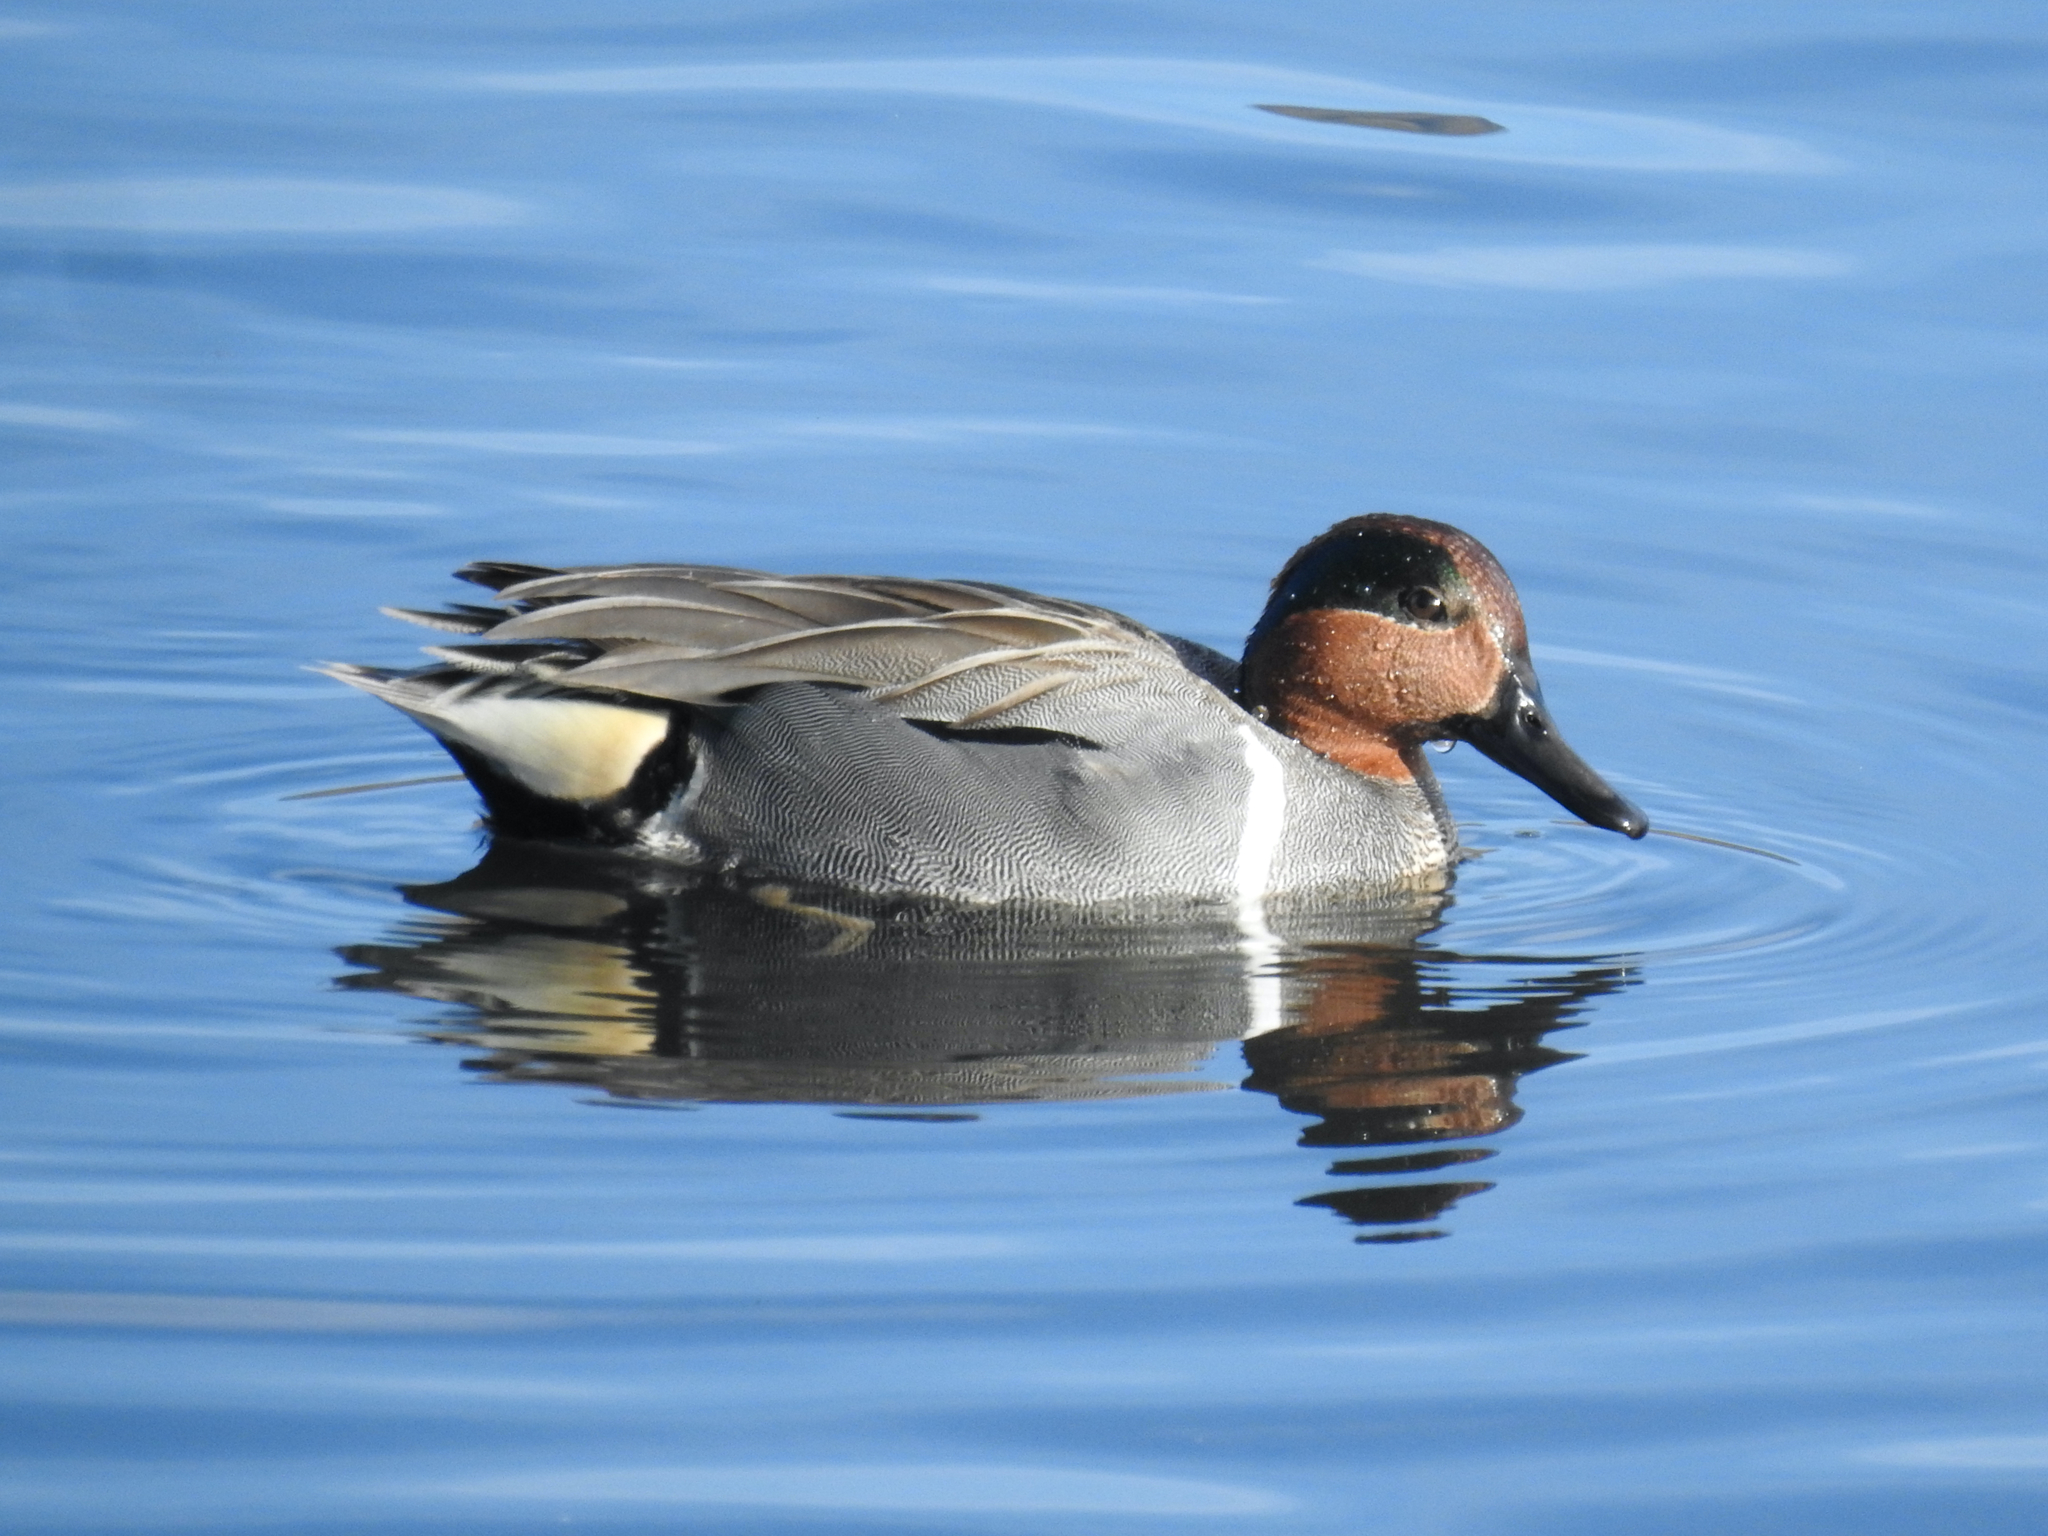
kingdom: Animalia
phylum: Chordata
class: Aves
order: Anseriformes
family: Anatidae
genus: Anas
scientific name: Anas crecca
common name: Eurasian teal
